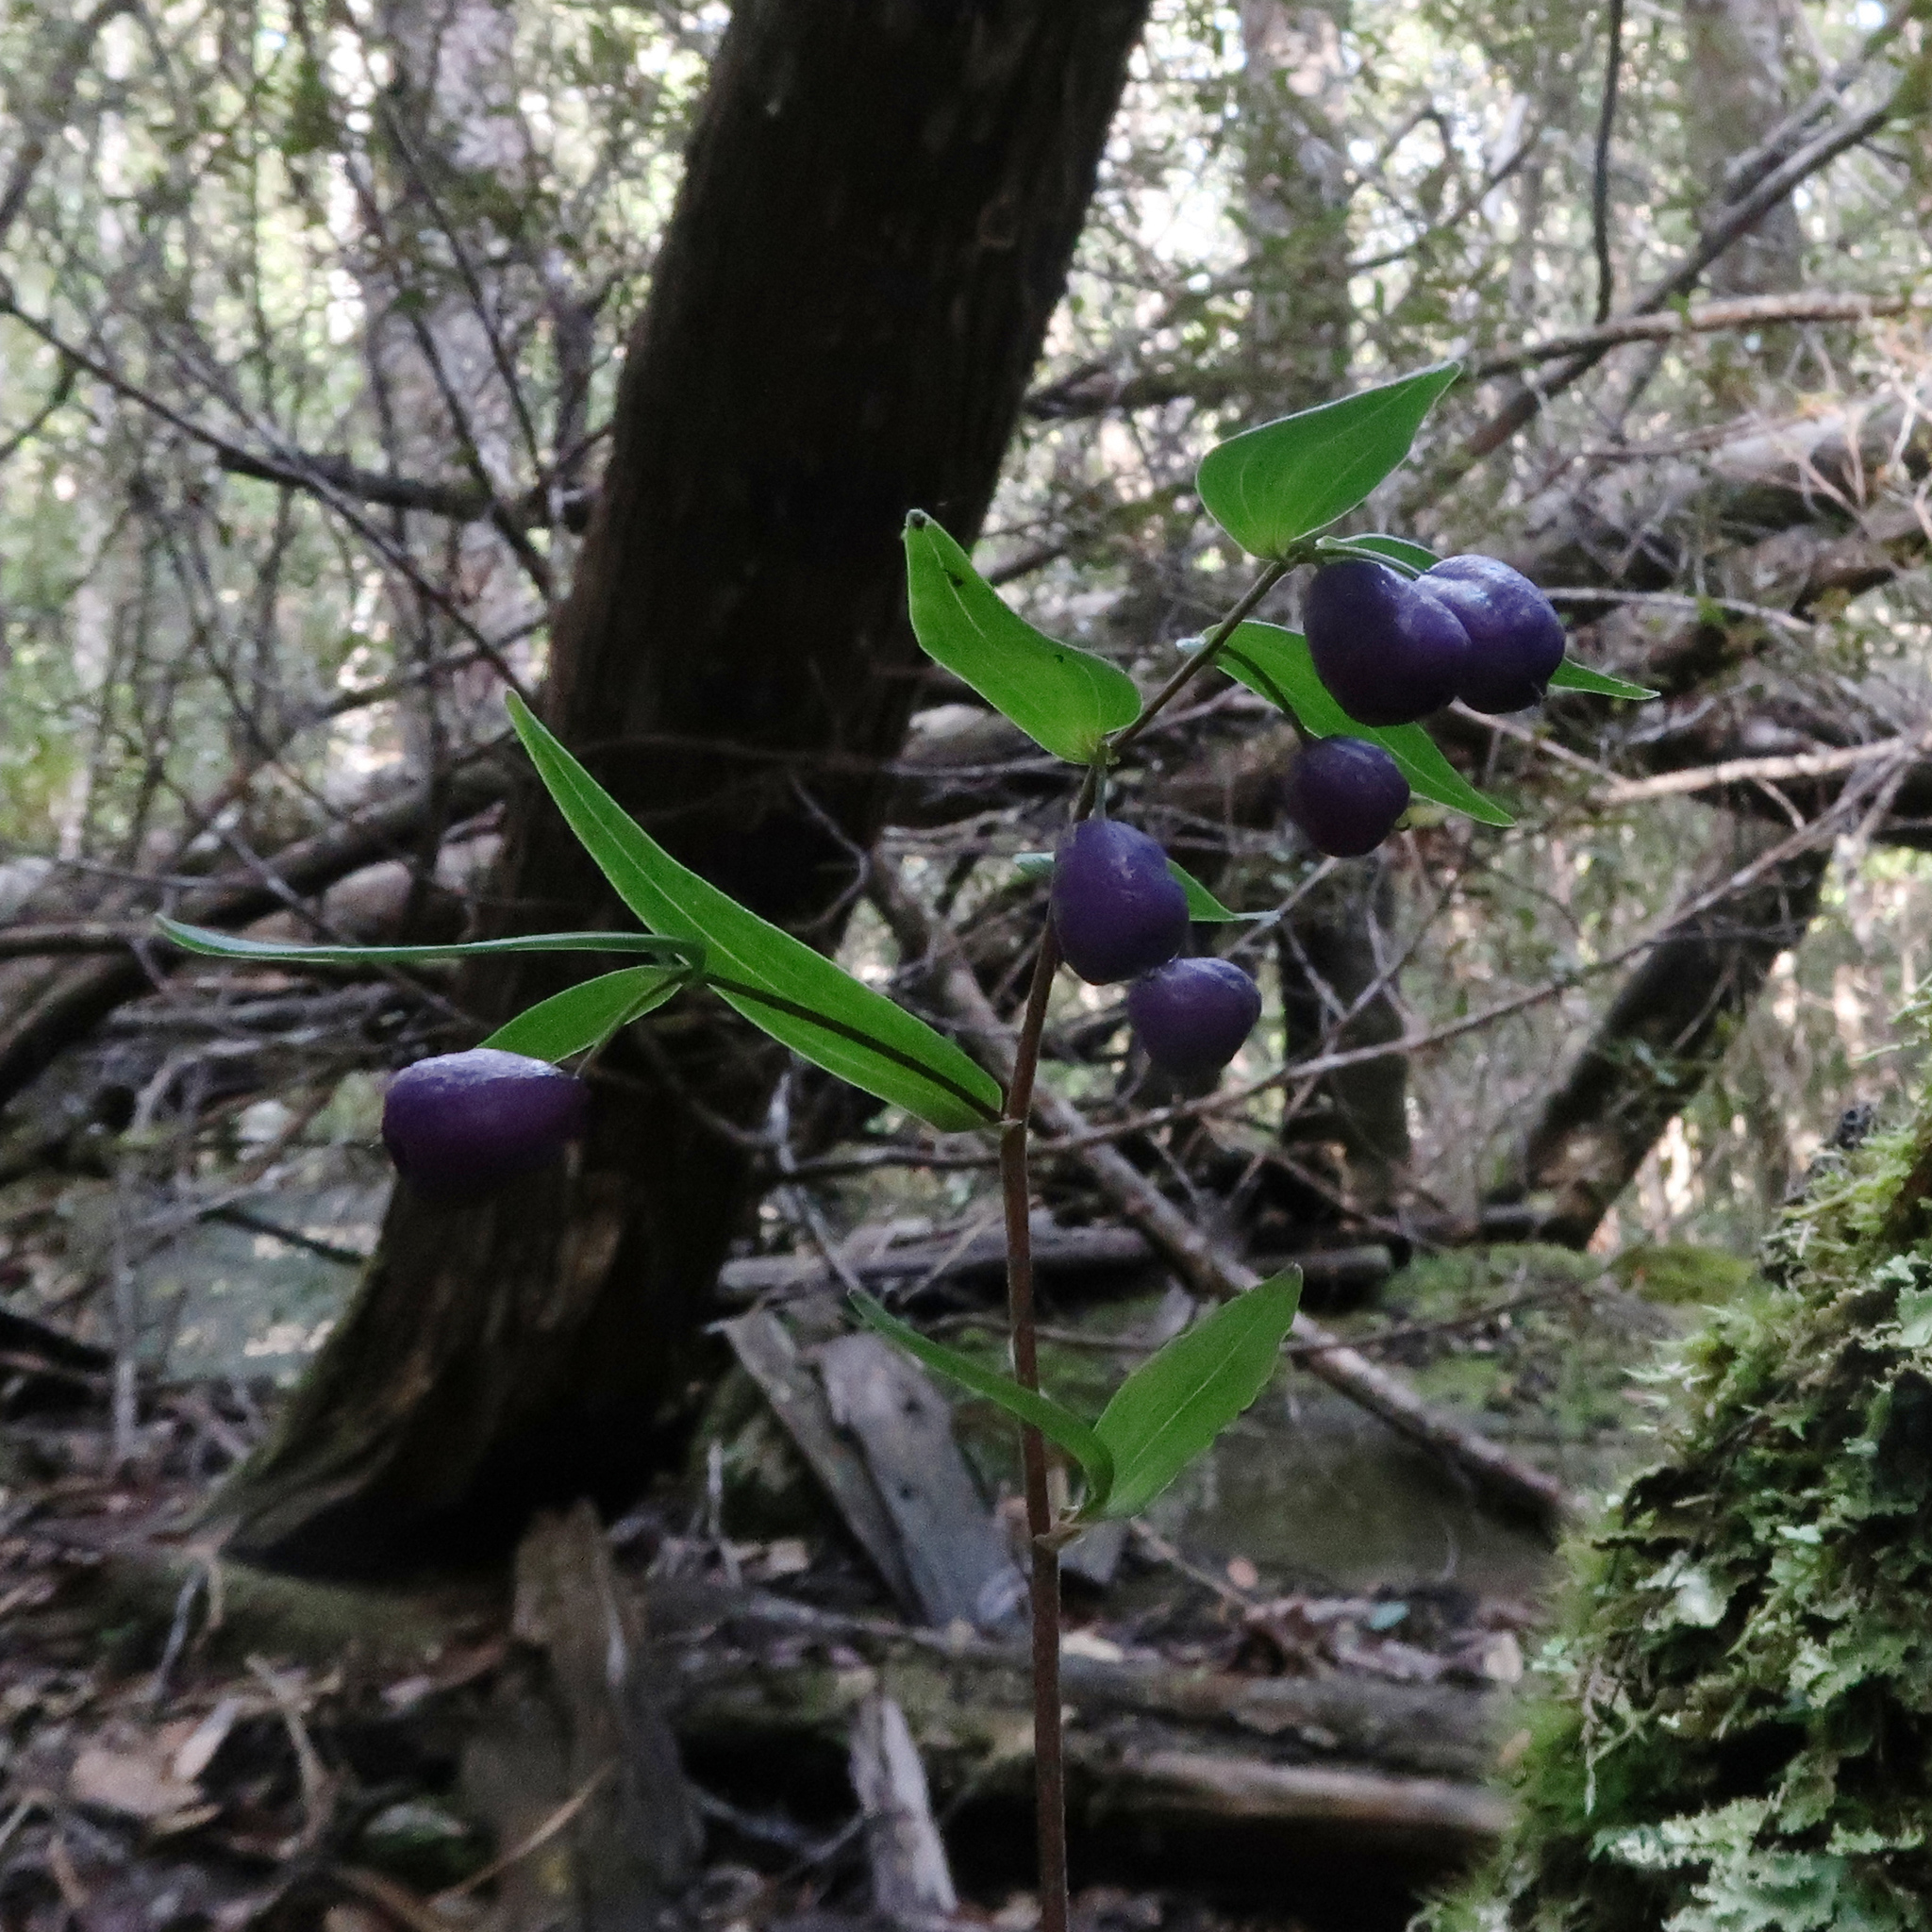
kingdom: Plantae
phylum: Tracheophyta
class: Liliopsida
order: Liliales
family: Alstroemeriaceae
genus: Drymophila
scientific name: Drymophila cyanocarpa
